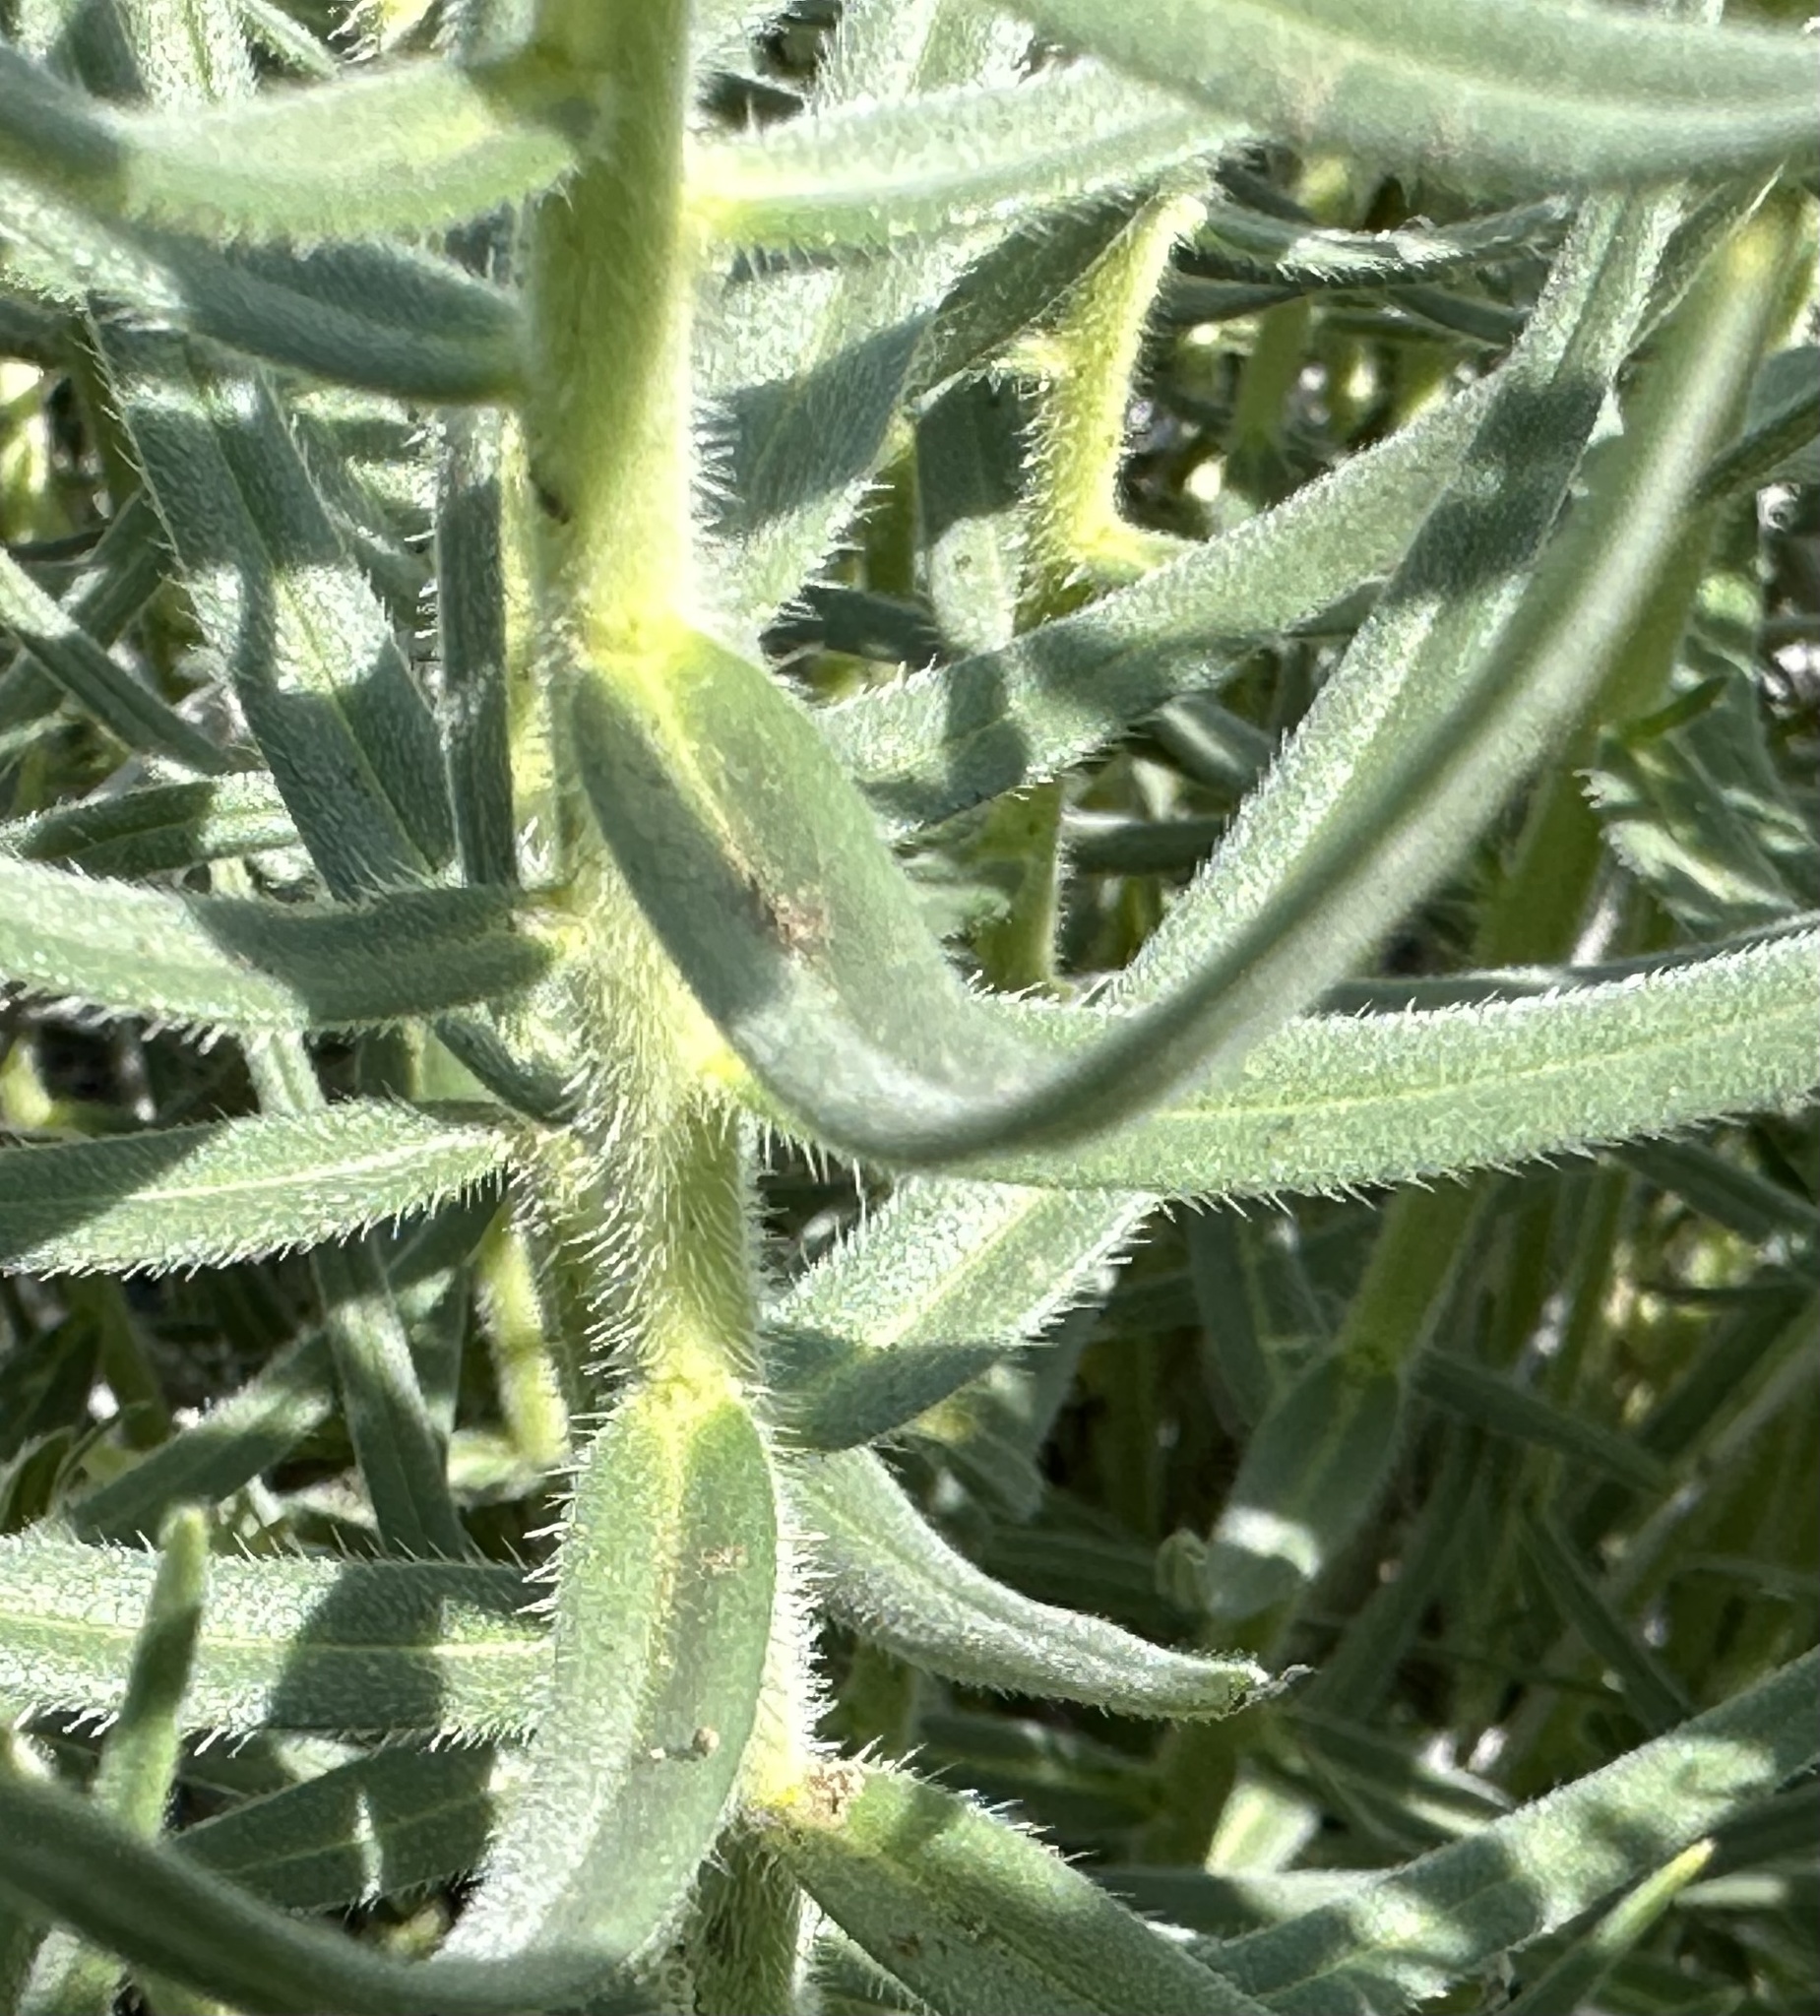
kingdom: Plantae
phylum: Tracheophyta
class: Magnoliopsida
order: Boraginales
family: Boraginaceae
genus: Lithospermum
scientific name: Lithospermum ruderale
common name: Western gromwell
